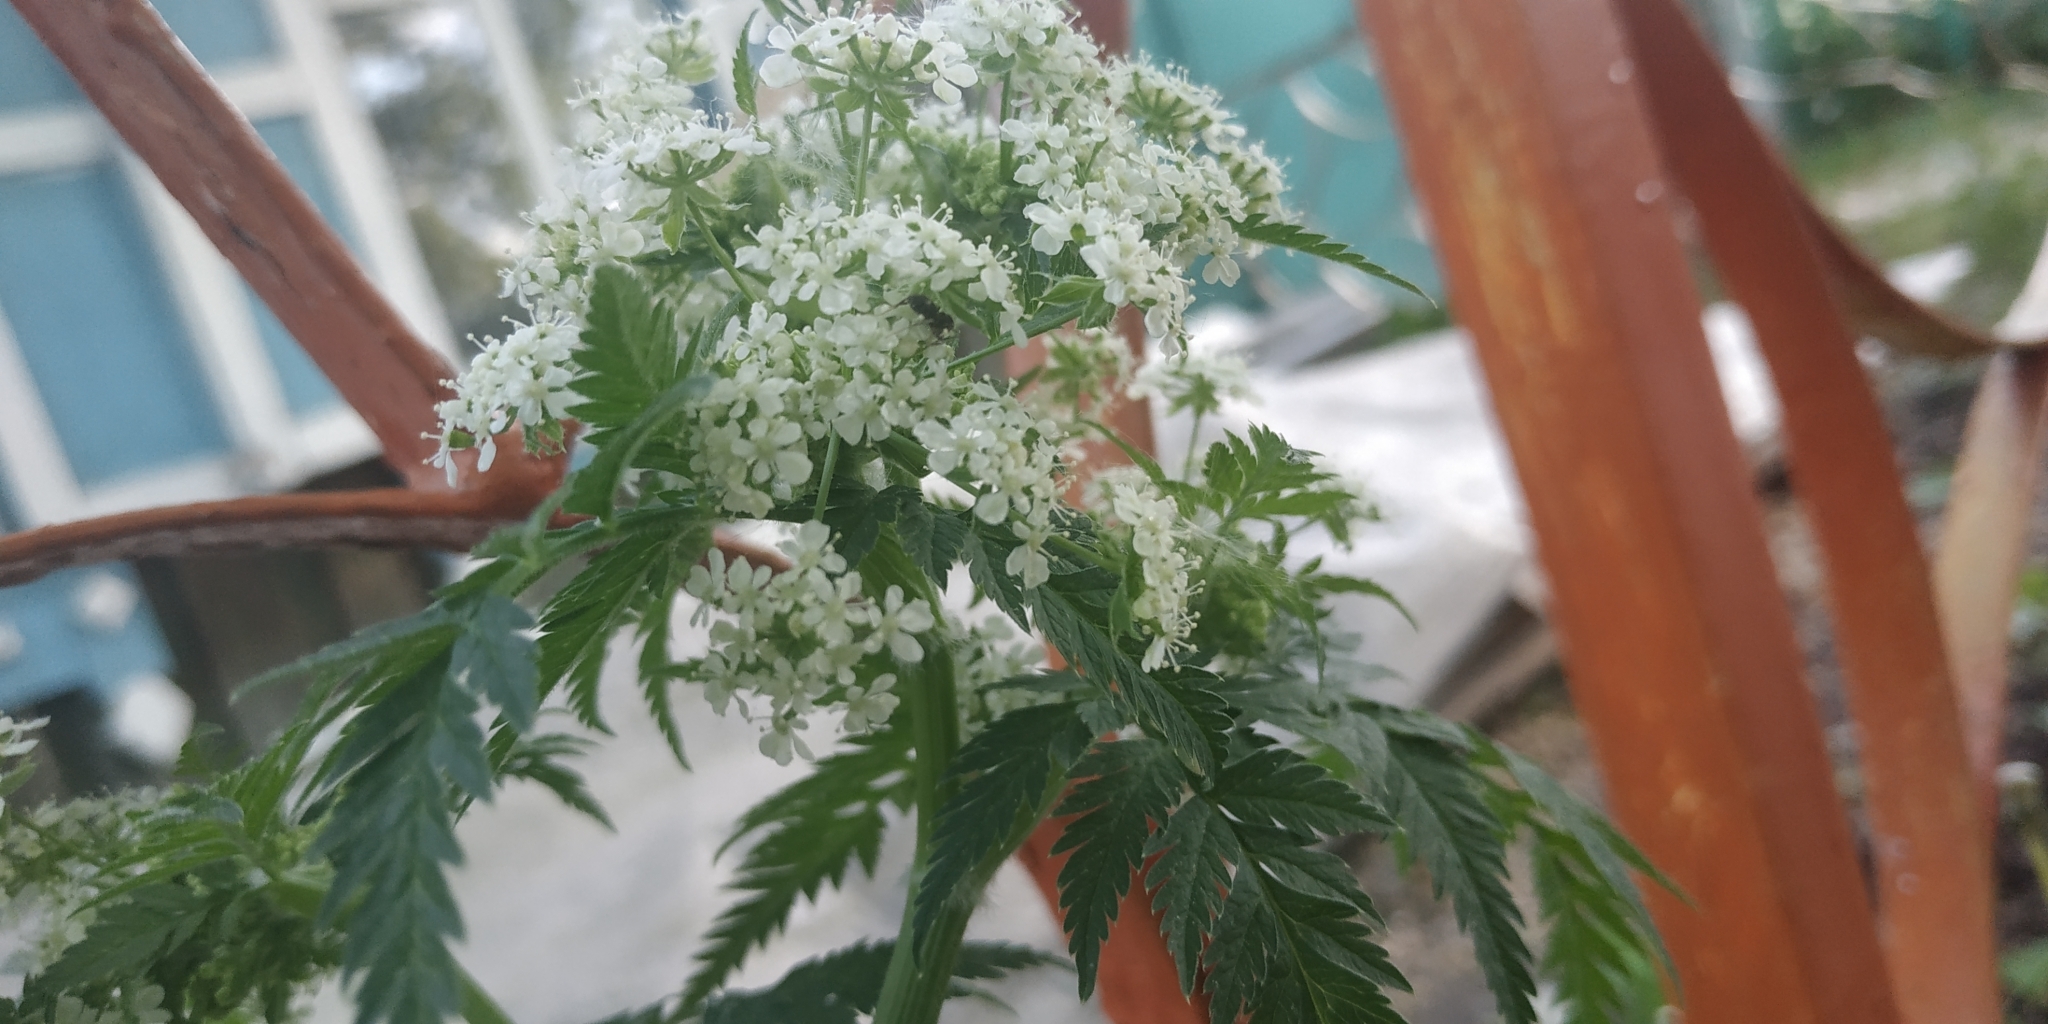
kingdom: Plantae
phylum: Tracheophyta
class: Magnoliopsida
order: Apiales
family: Apiaceae
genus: Anthriscus
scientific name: Anthriscus sylvestris
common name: Cow parsley
